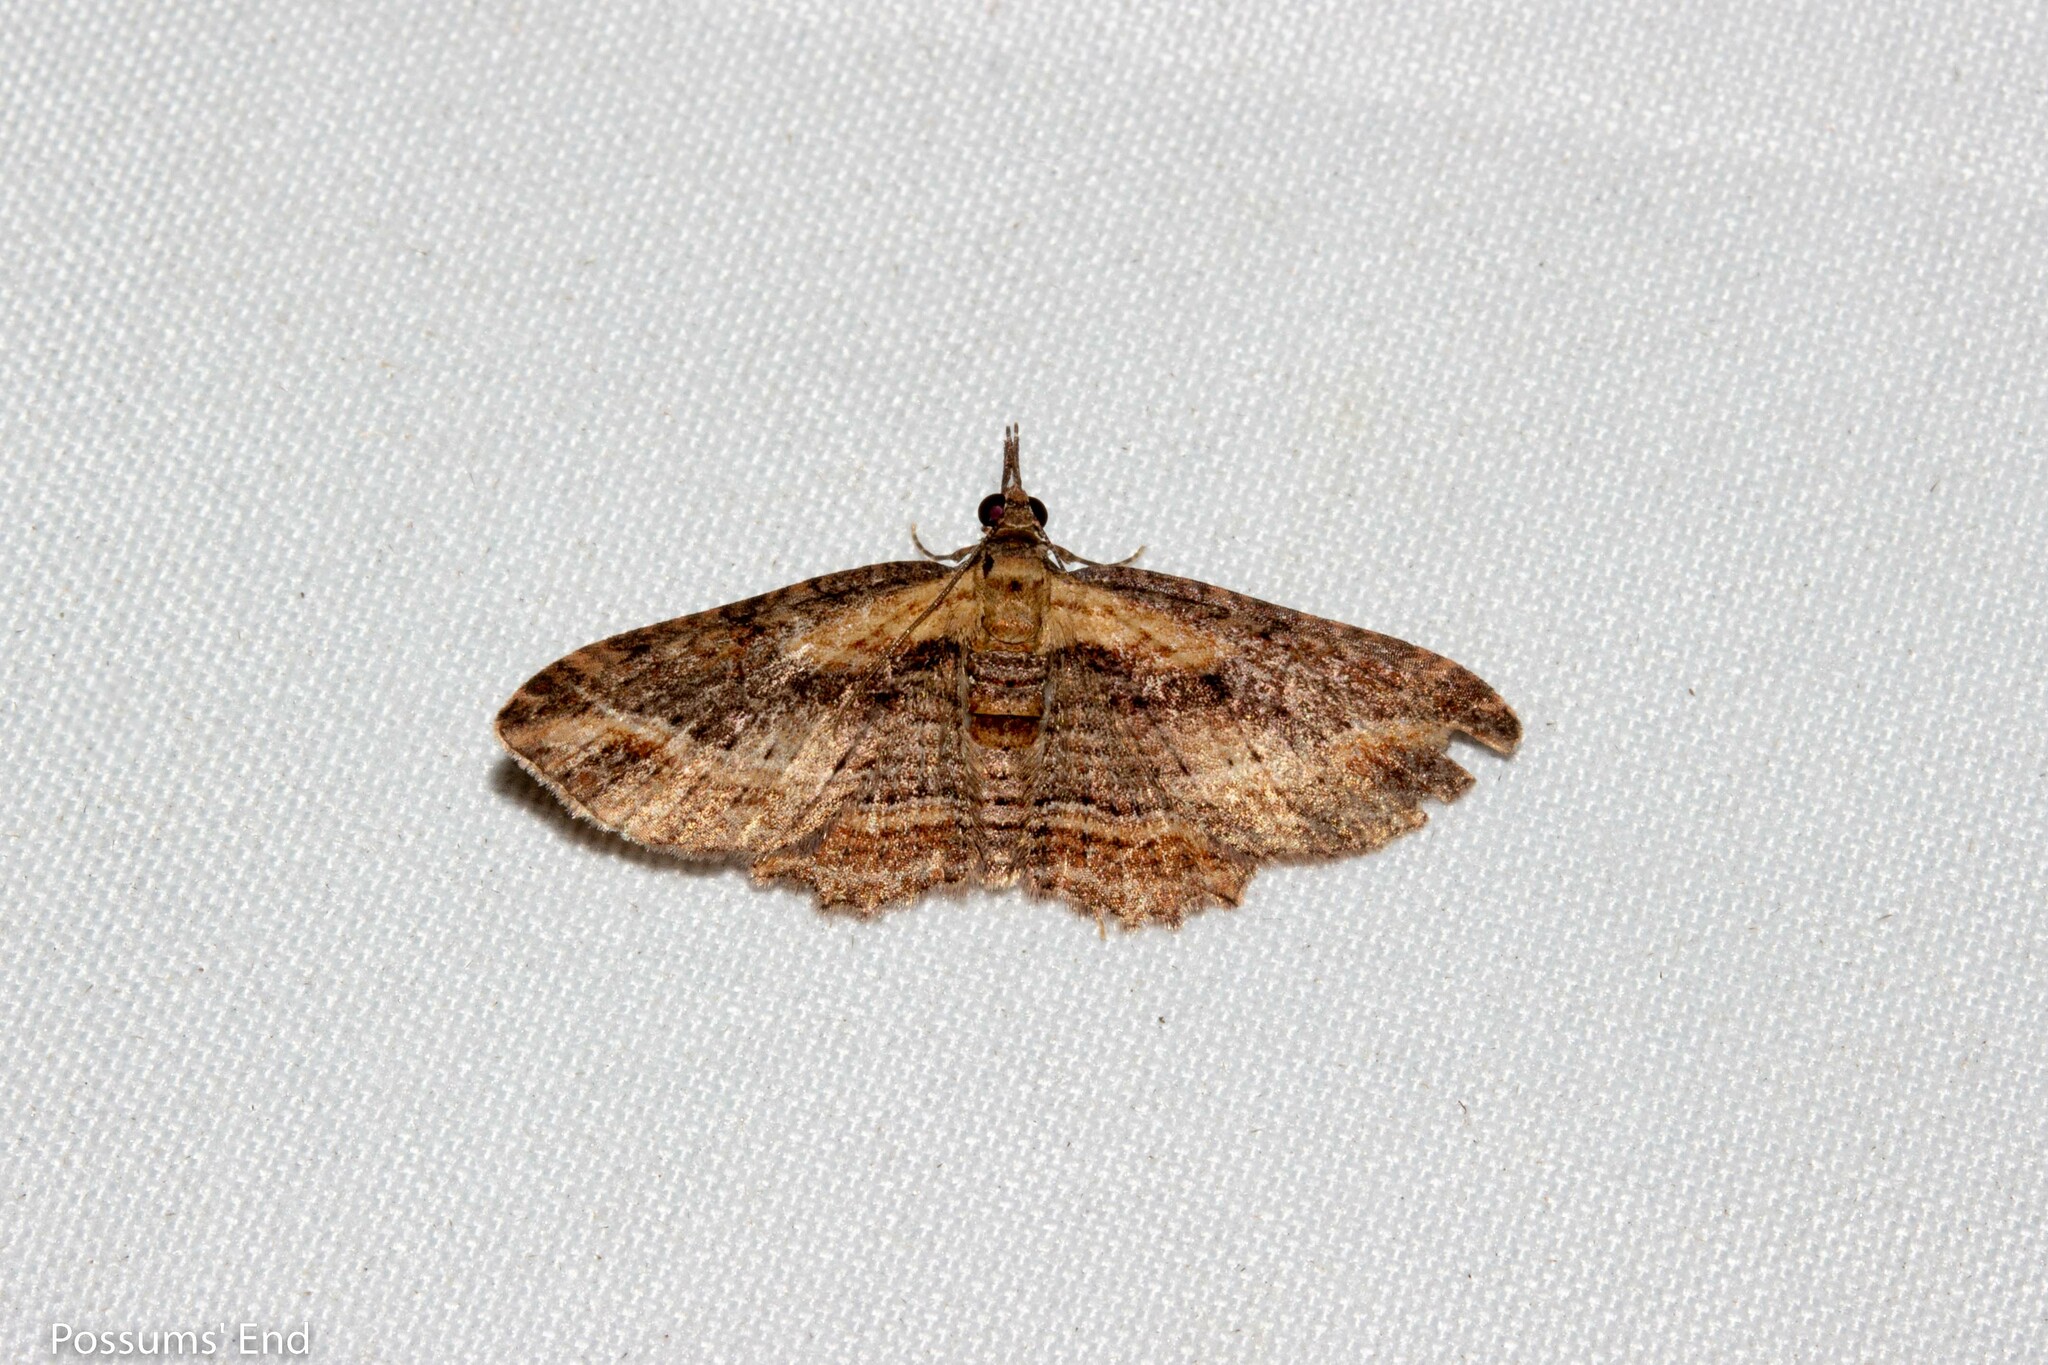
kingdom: Animalia
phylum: Arthropoda
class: Insecta
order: Lepidoptera
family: Geometridae
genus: Chloroclystis
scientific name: Chloroclystis filata
